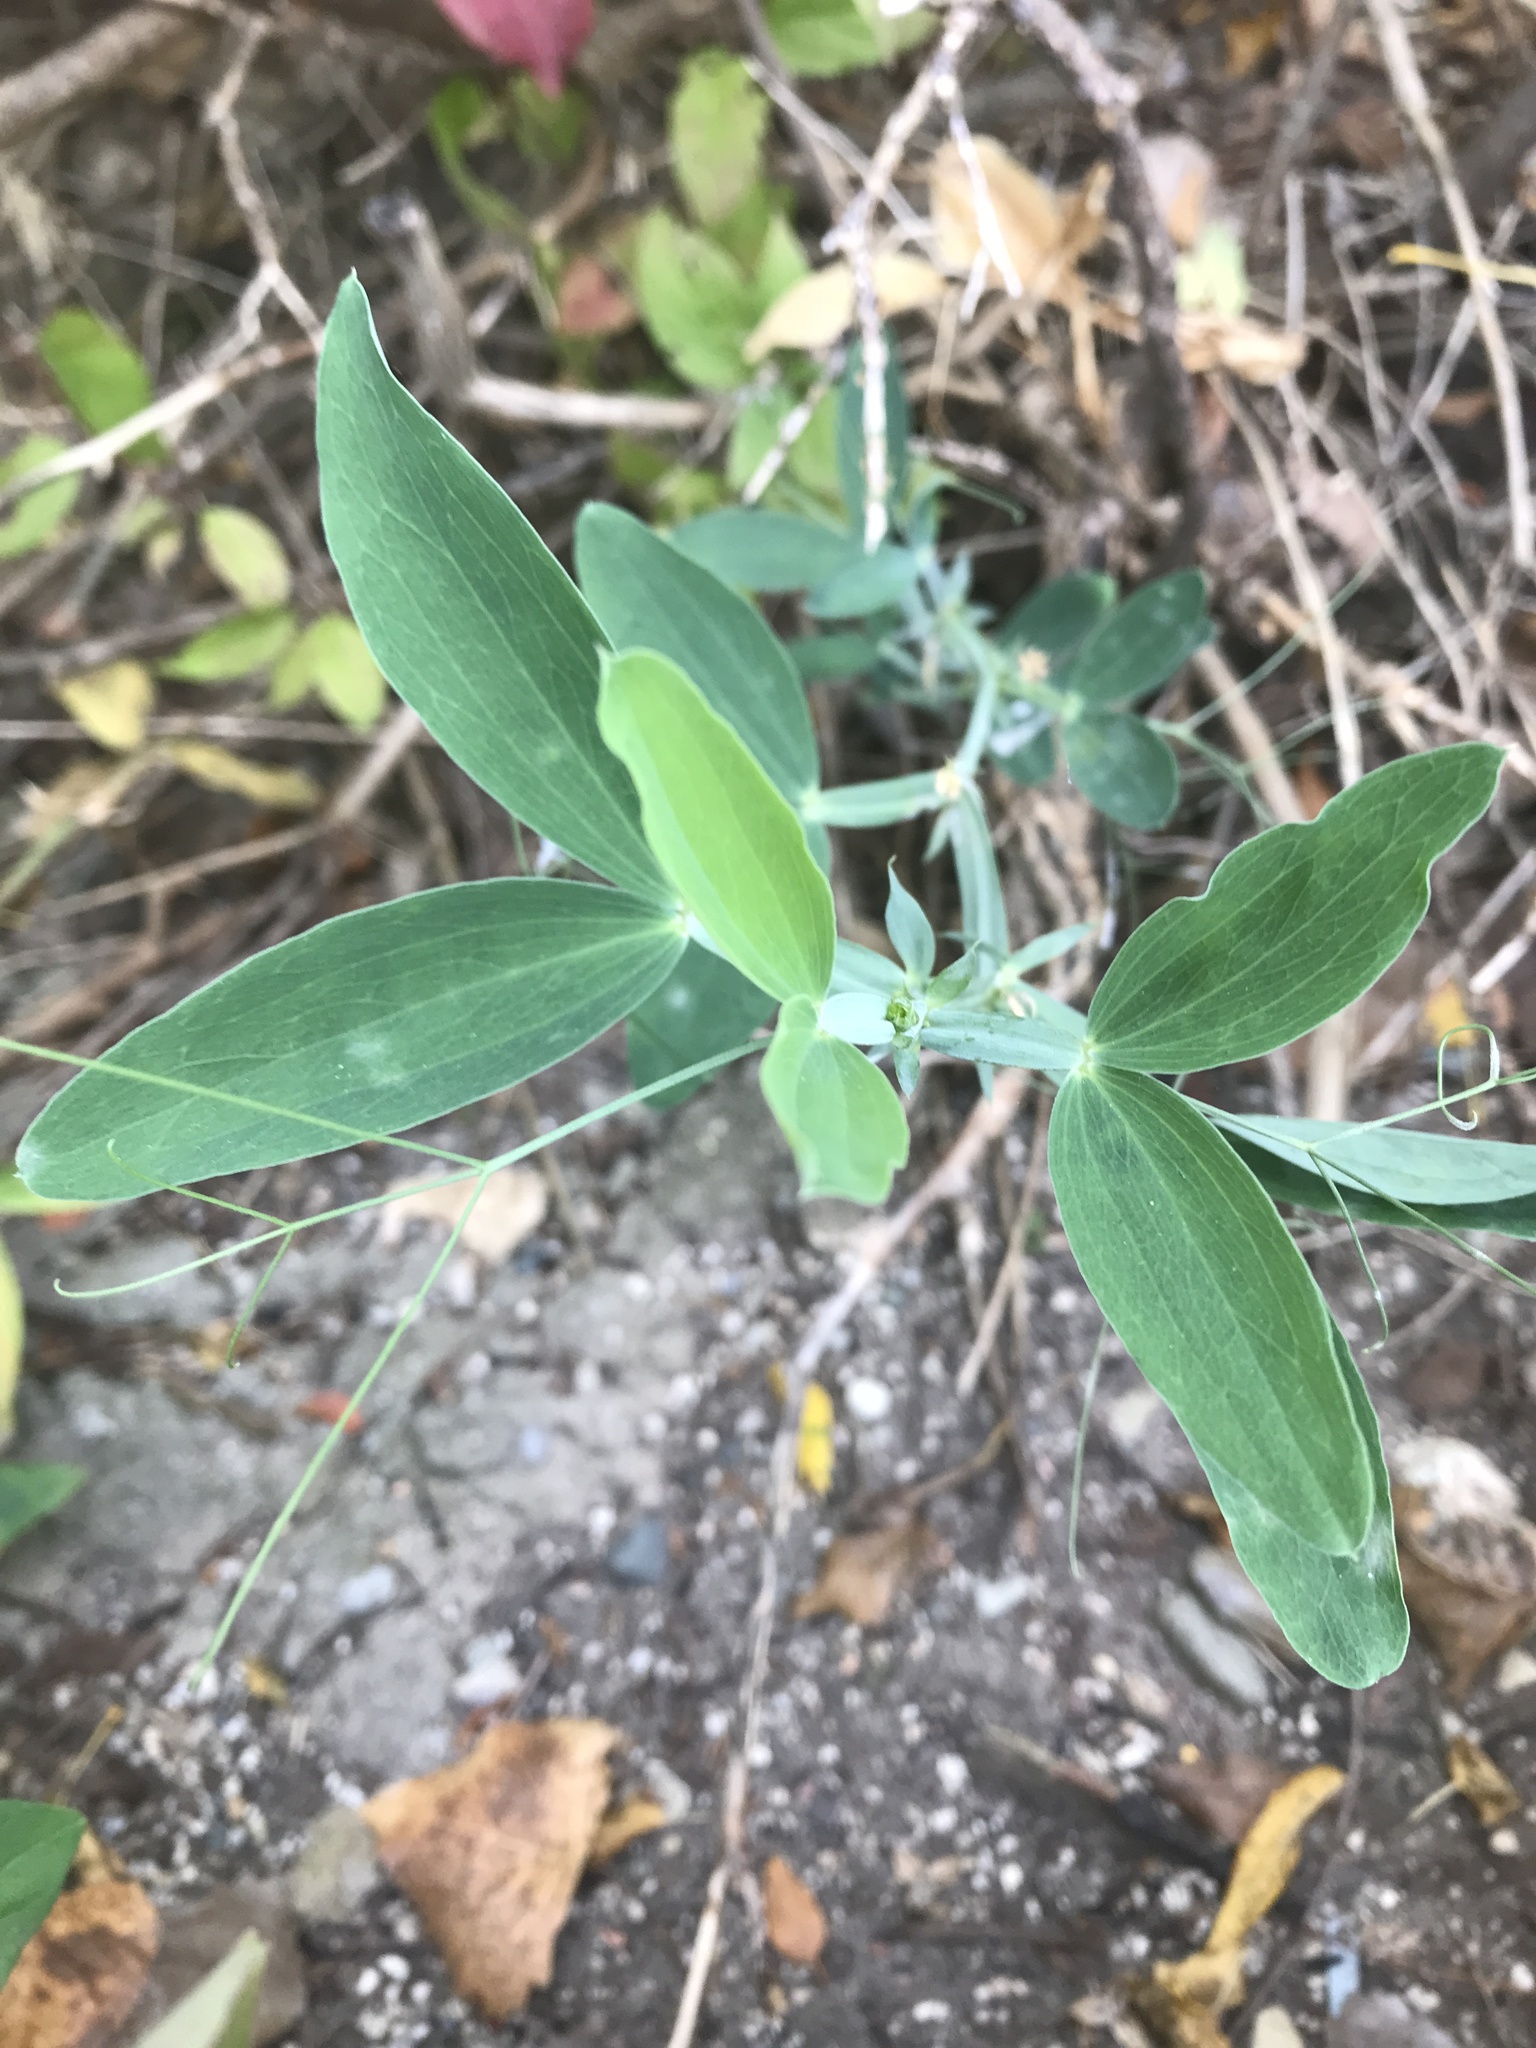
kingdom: Plantae
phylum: Tracheophyta
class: Magnoliopsida
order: Fabales
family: Fabaceae
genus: Lathyrus
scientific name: Lathyrus latifolius
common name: Perennial pea
